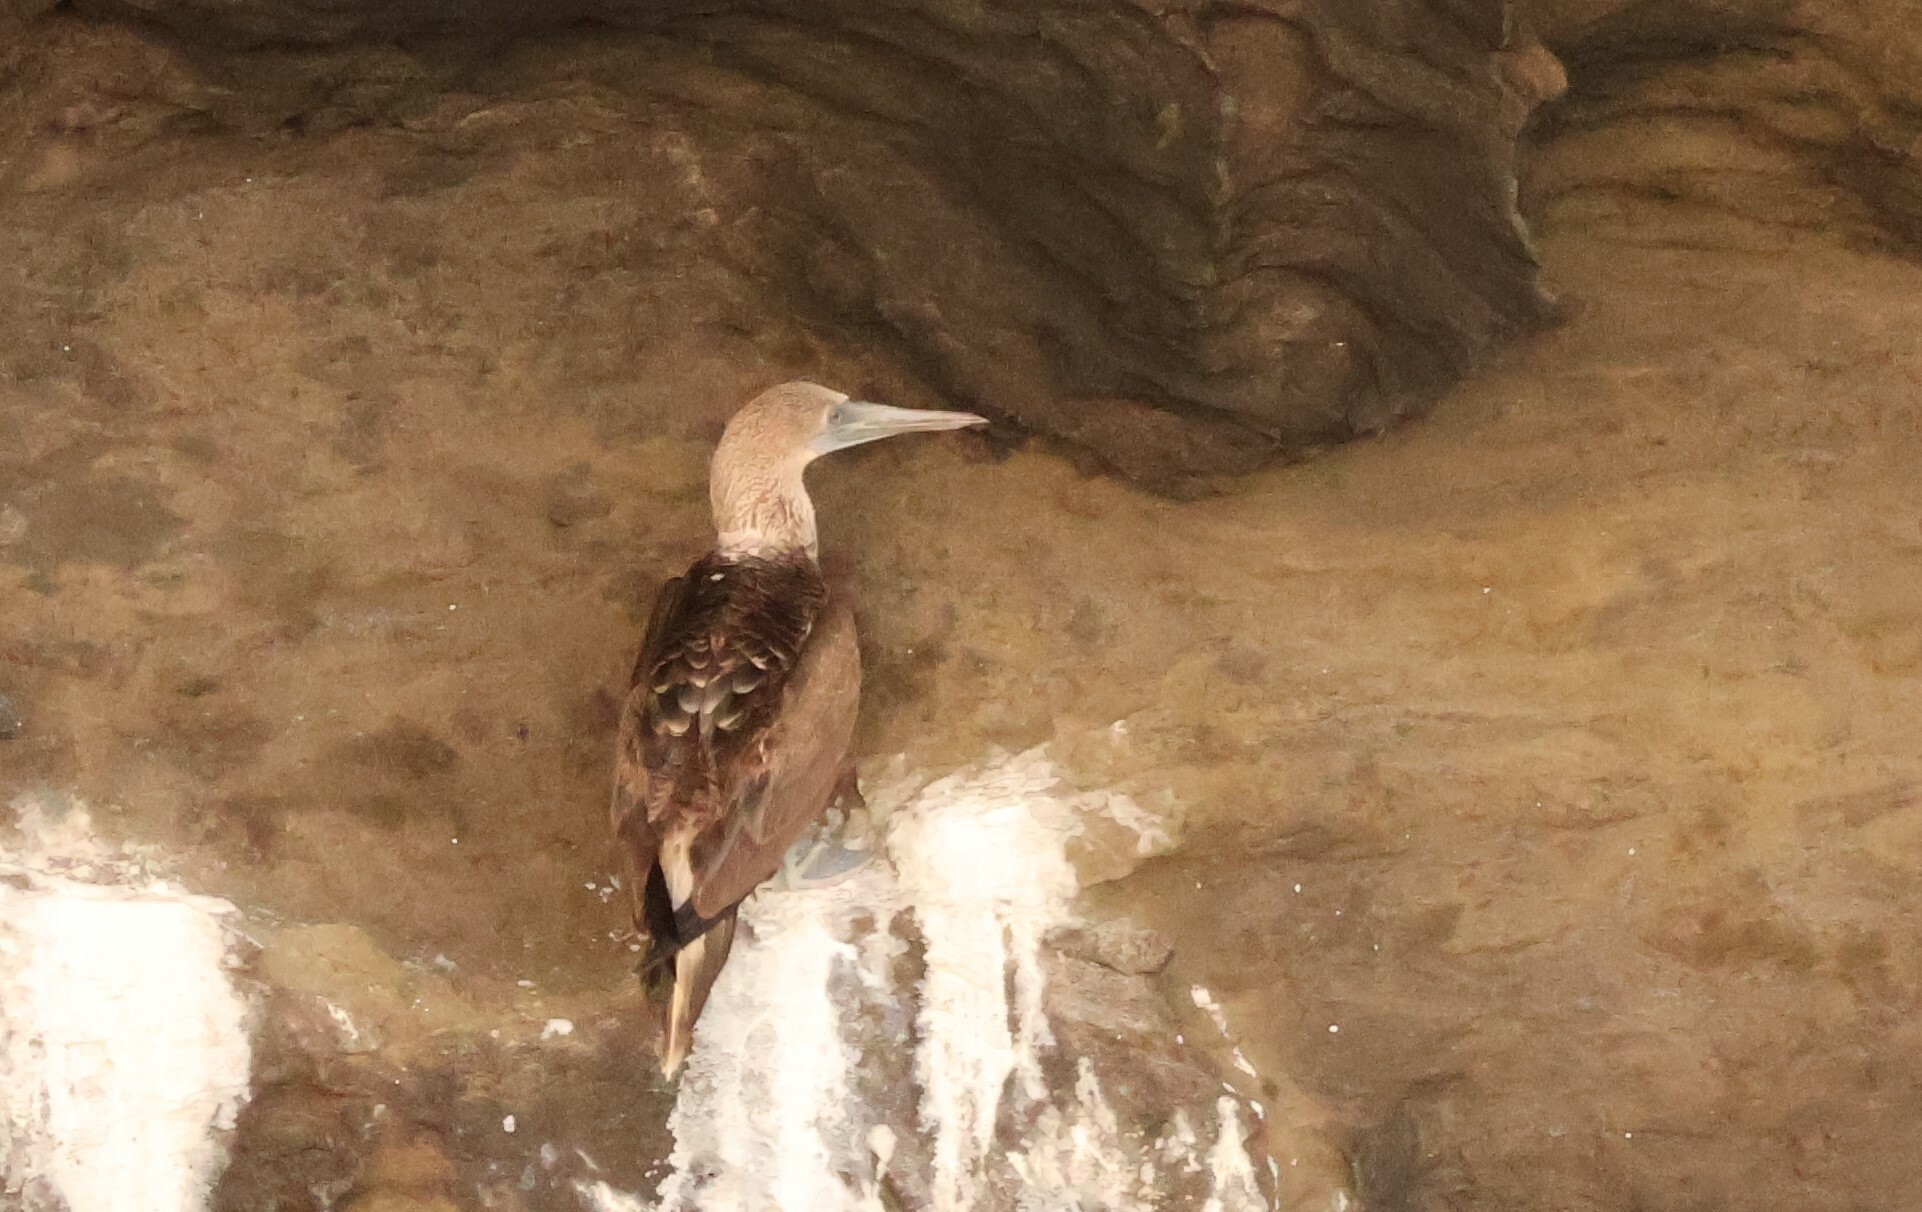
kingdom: Animalia
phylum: Chordata
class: Aves
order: Suliformes
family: Sulidae
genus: Sula
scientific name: Sula nebouxii
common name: Blue-footed booby
